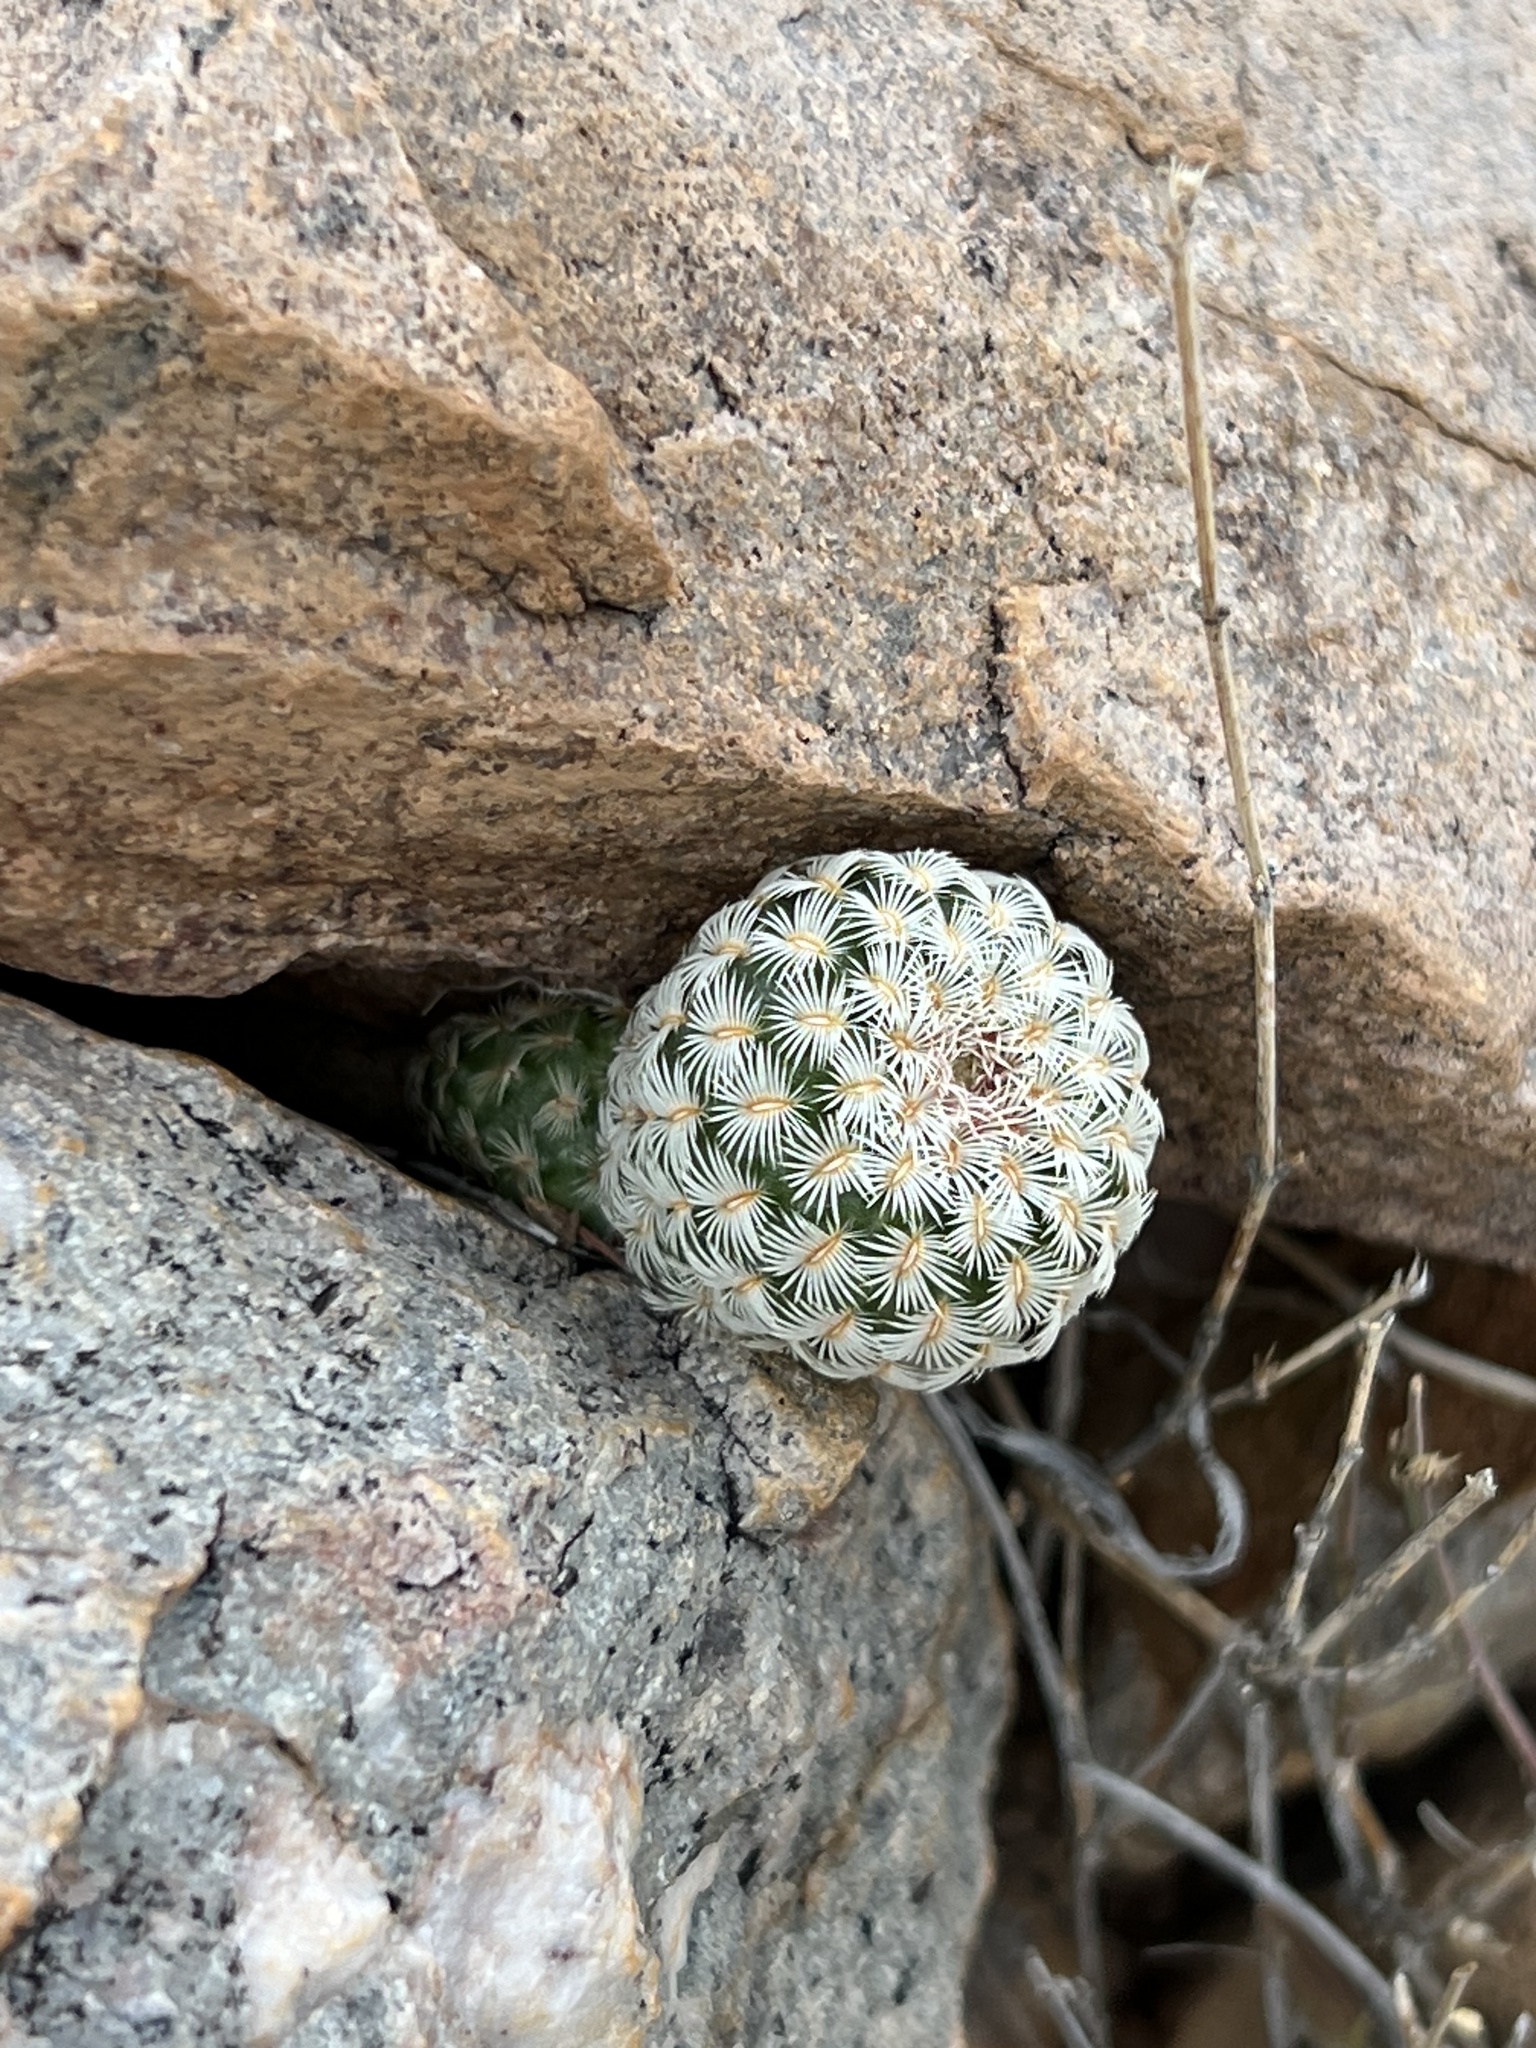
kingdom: Plantae
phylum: Tracheophyta
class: Magnoliopsida
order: Caryophyllales
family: Cactaceae
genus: Echinocereus
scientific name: Echinocereus rigidissimus
